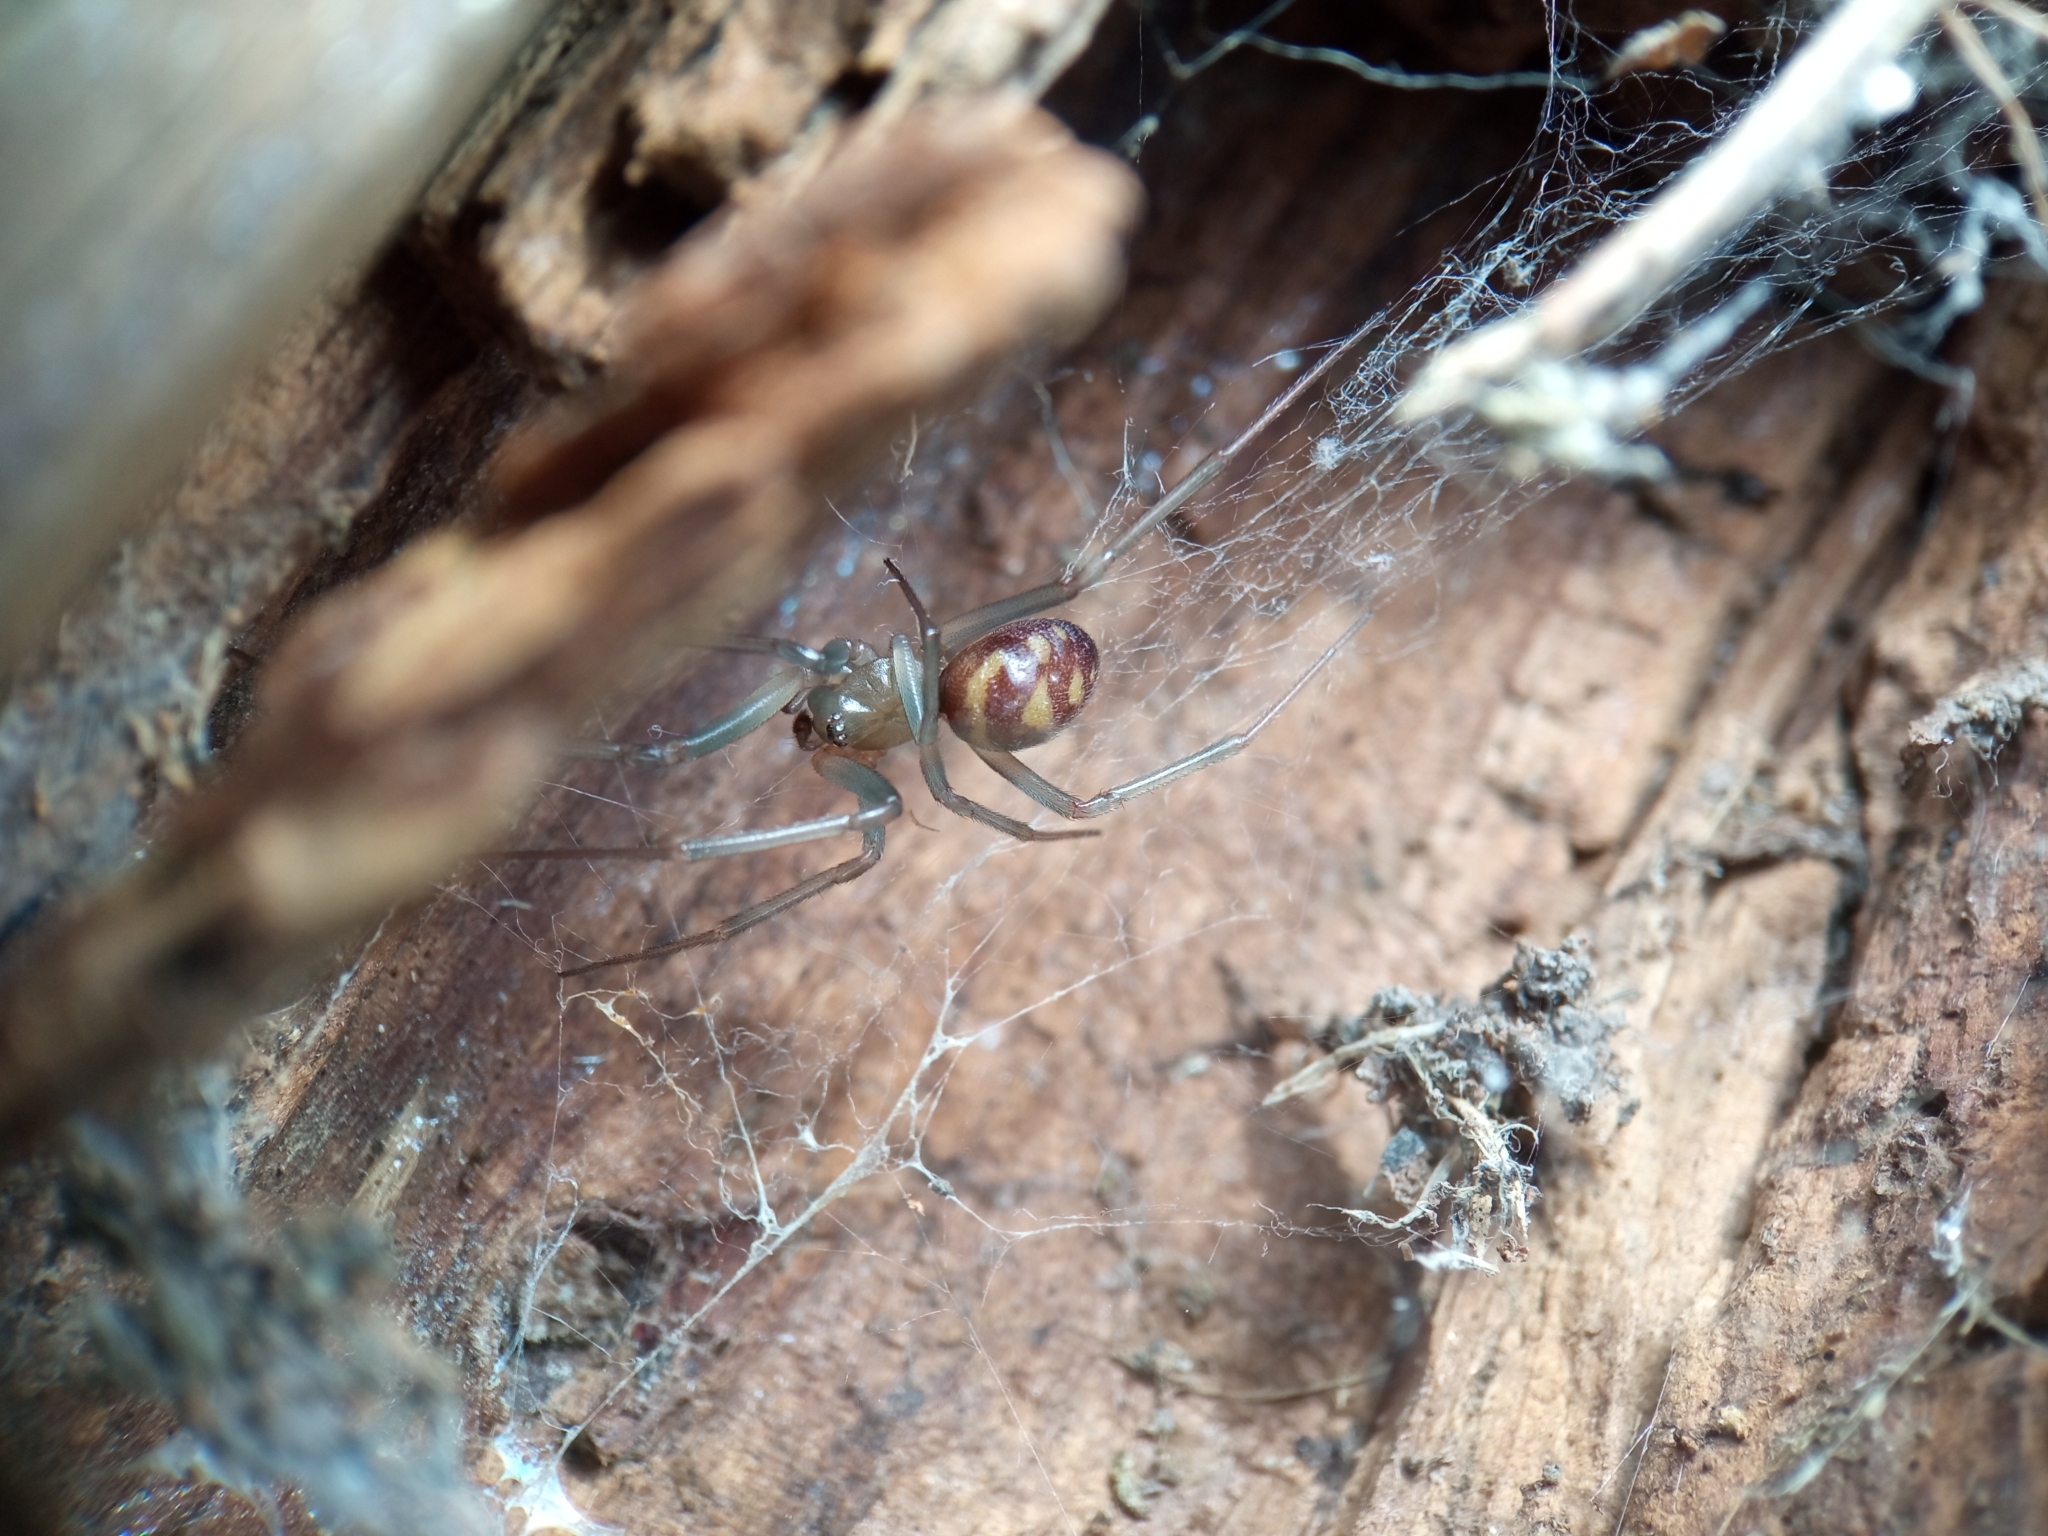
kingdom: Animalia
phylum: Arthropoda
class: Arachnida
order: Araneae
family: Theridiidae
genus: Steatoda
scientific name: Steatoda grossa
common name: False black widow
